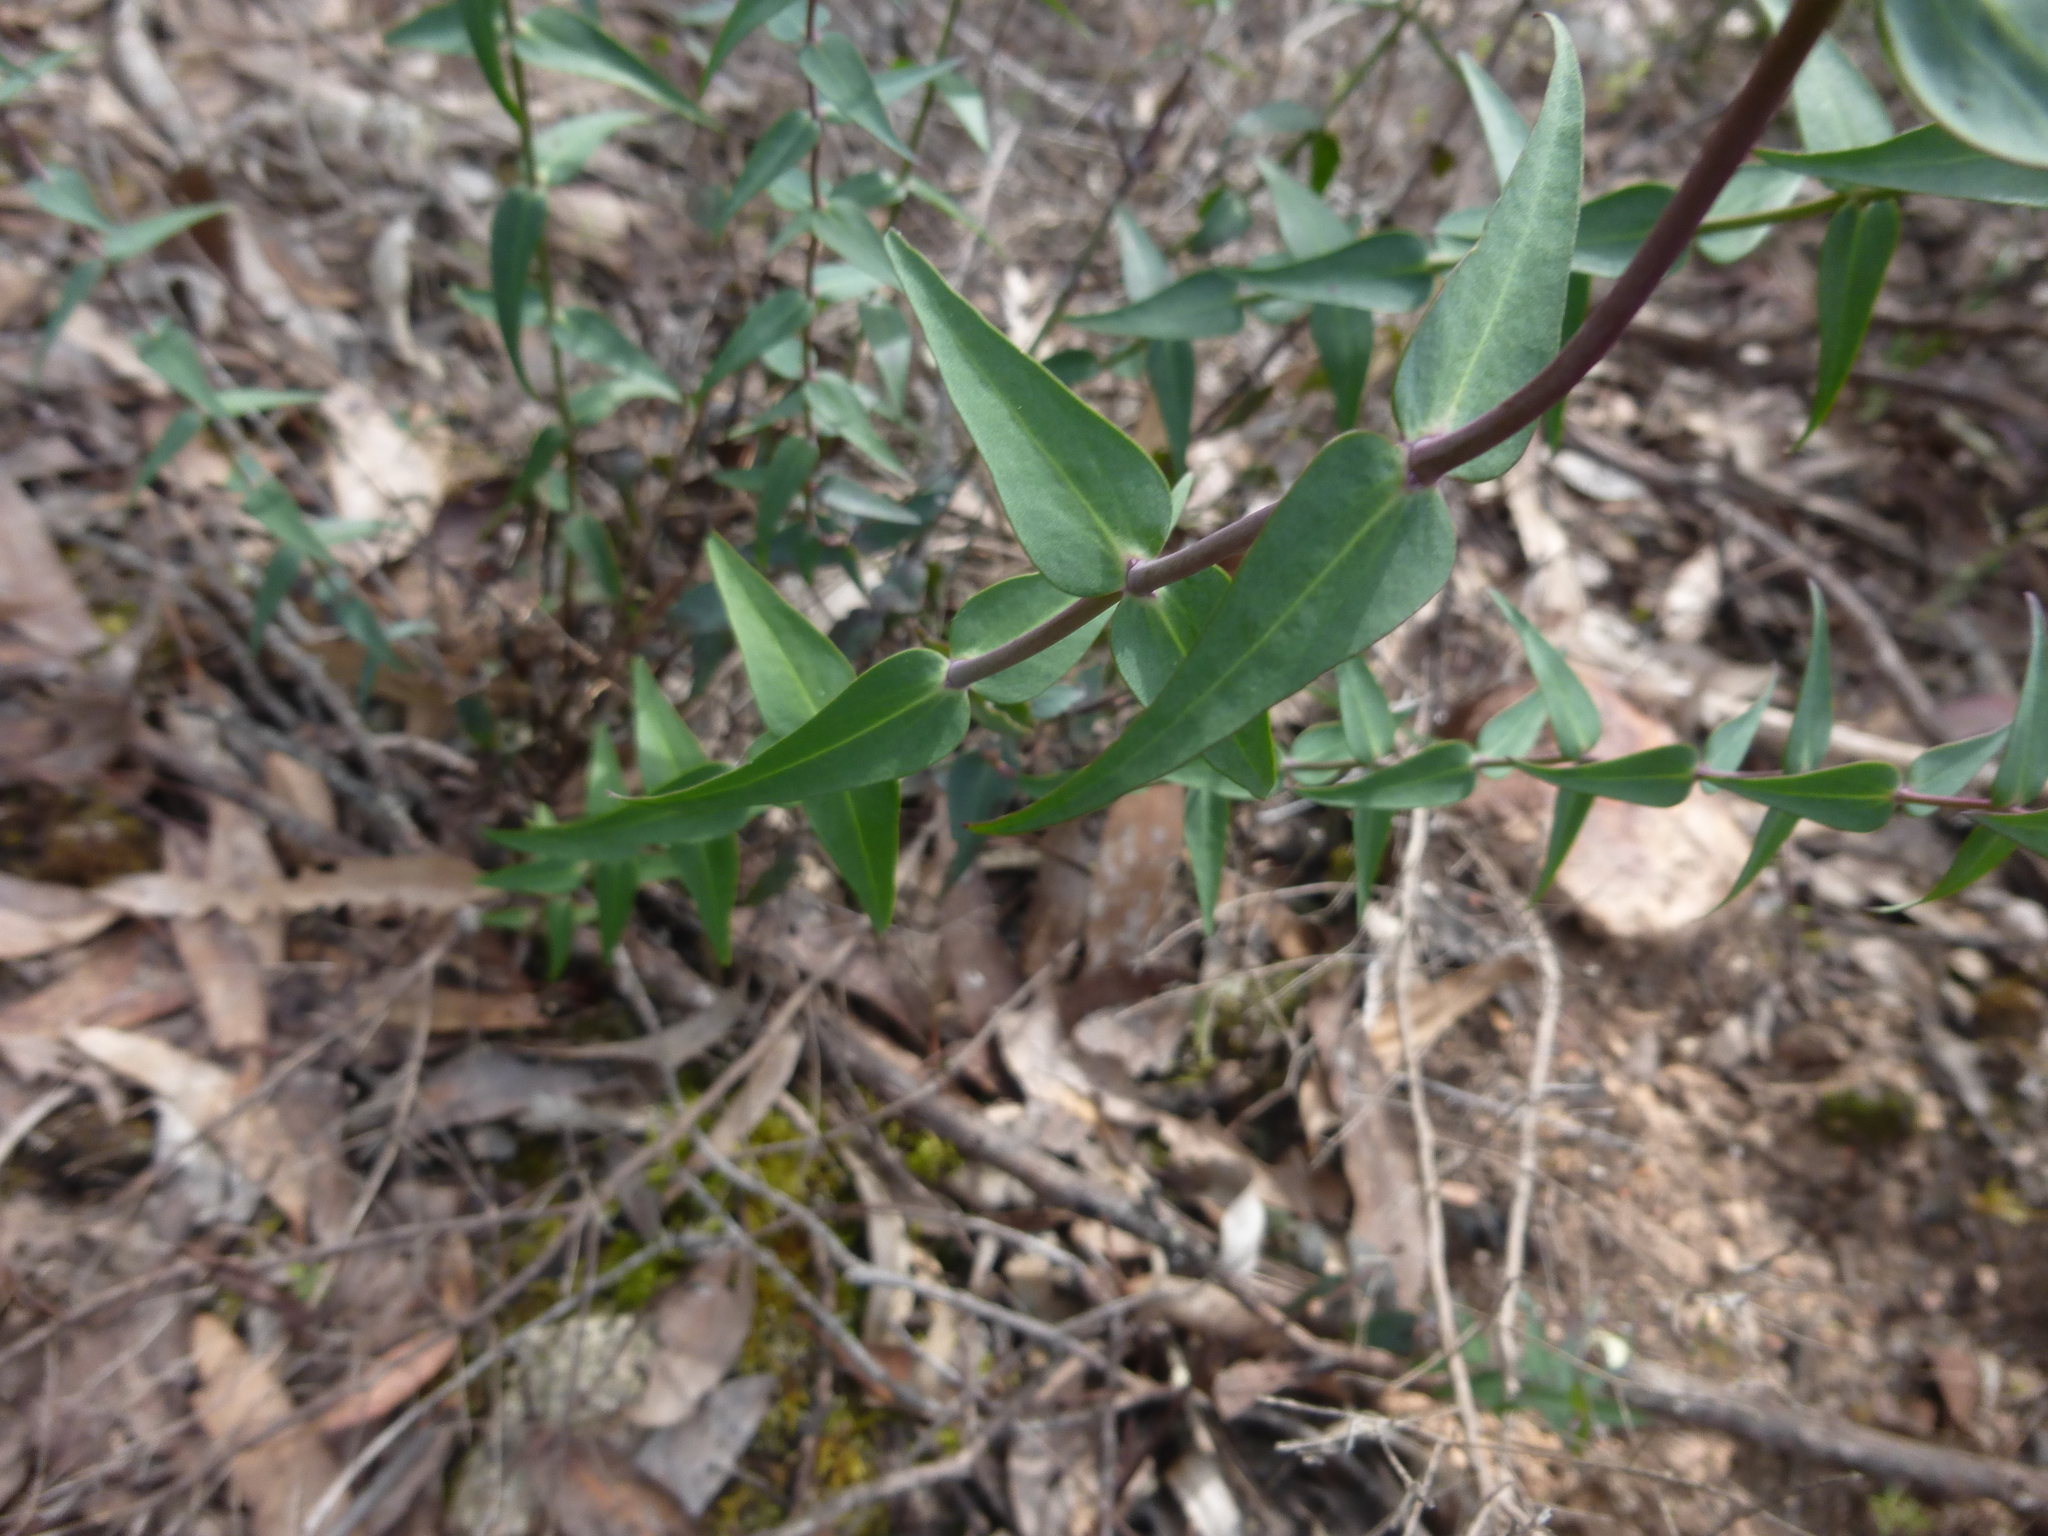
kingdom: Plantae
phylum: Tracheophyta
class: Magnoliopsida
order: Lamiales
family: Plantaginaceae
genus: Veronica
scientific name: Veronica perfoliata
